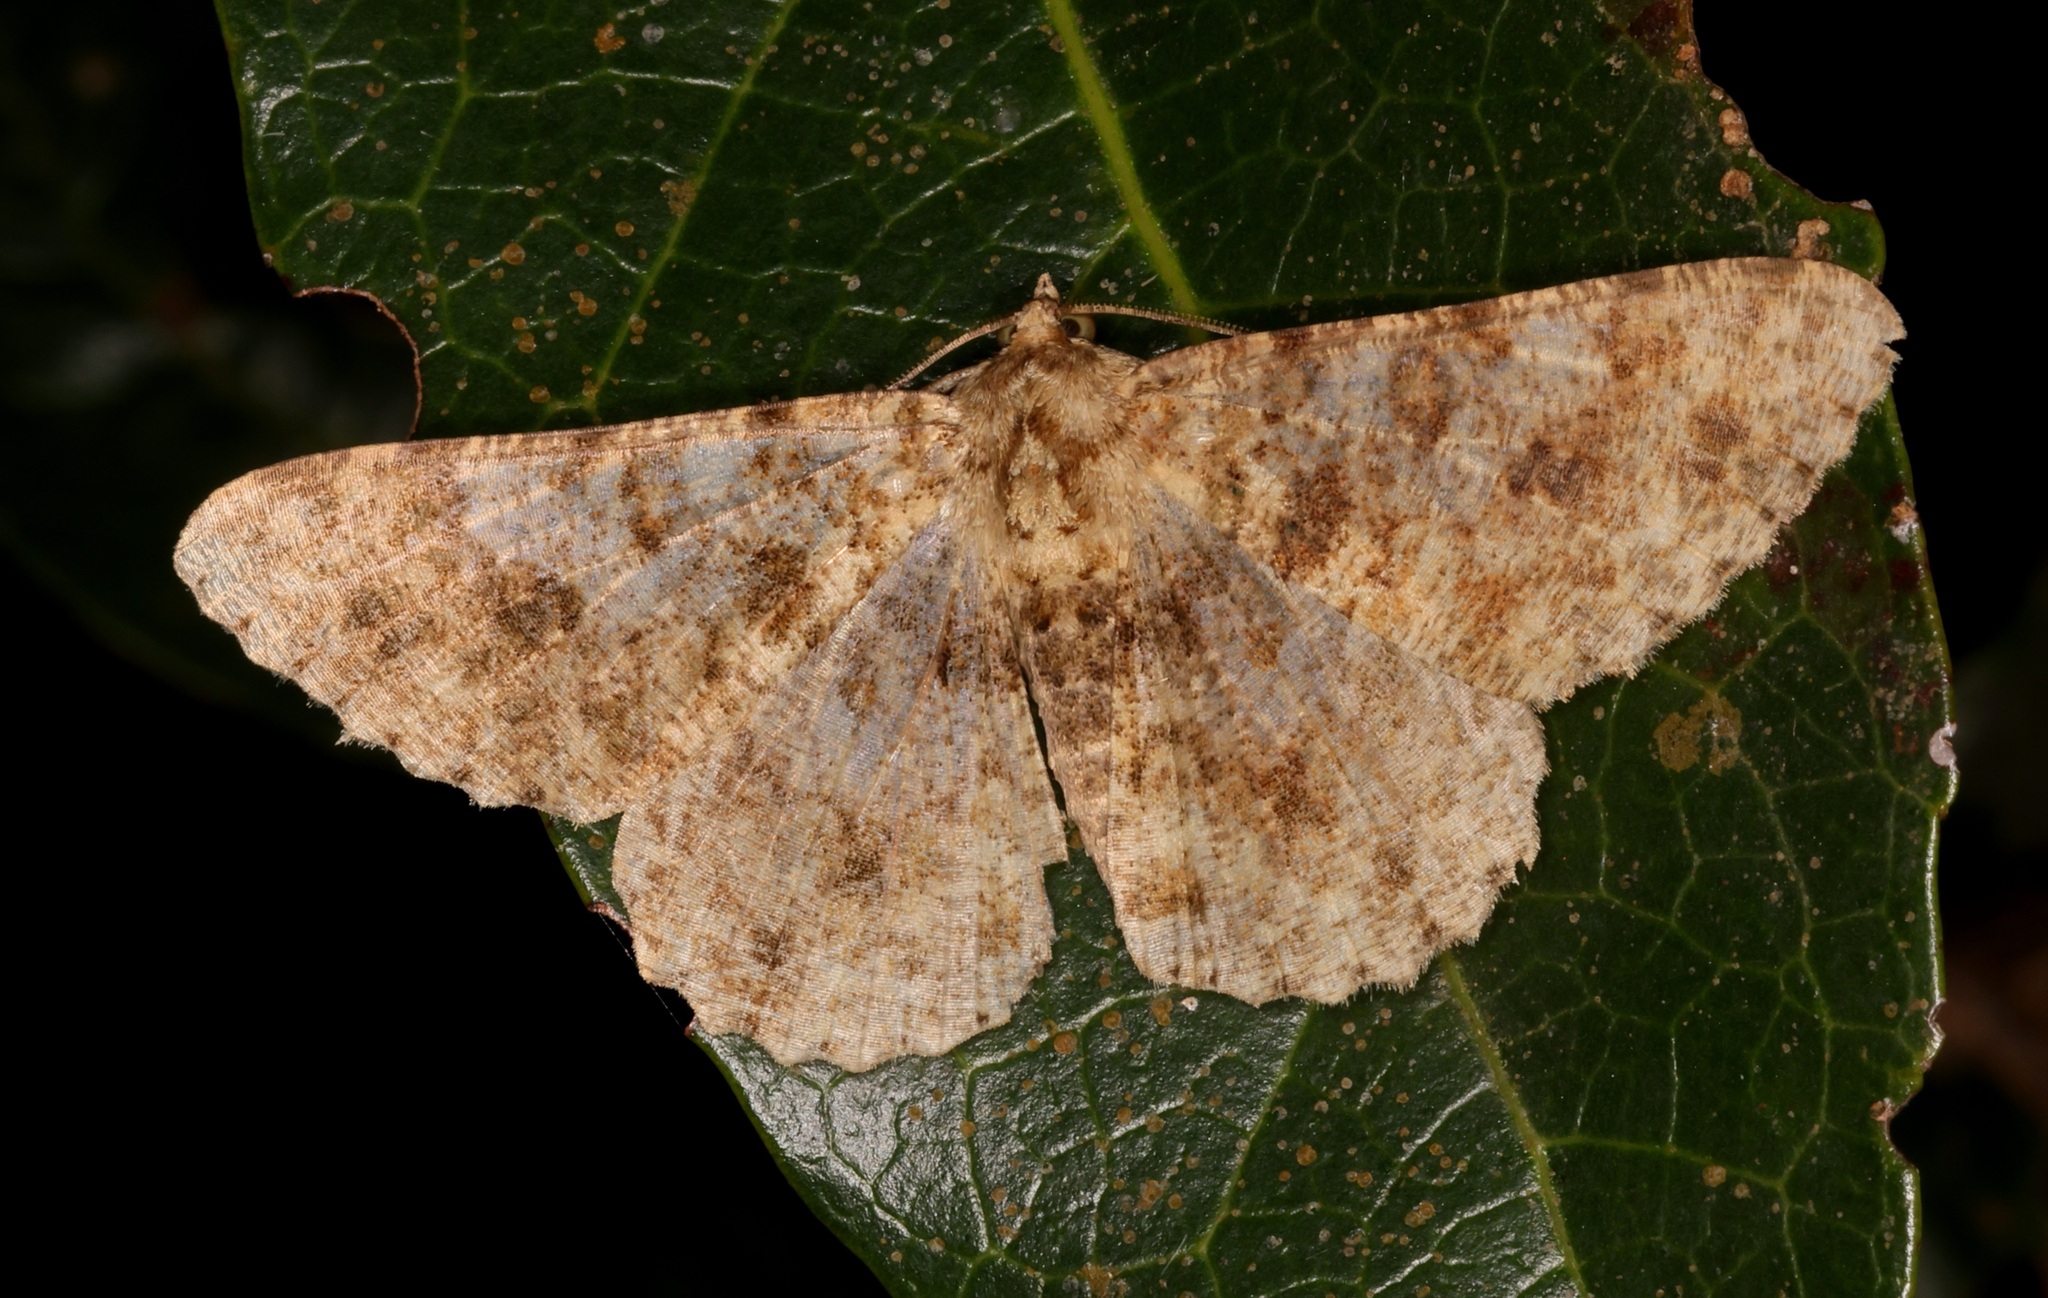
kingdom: Animalia
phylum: Arthropoda
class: Insecta
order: Lepidoptera
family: Geometridae
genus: Racotis
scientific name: Racotis boarmiaria
